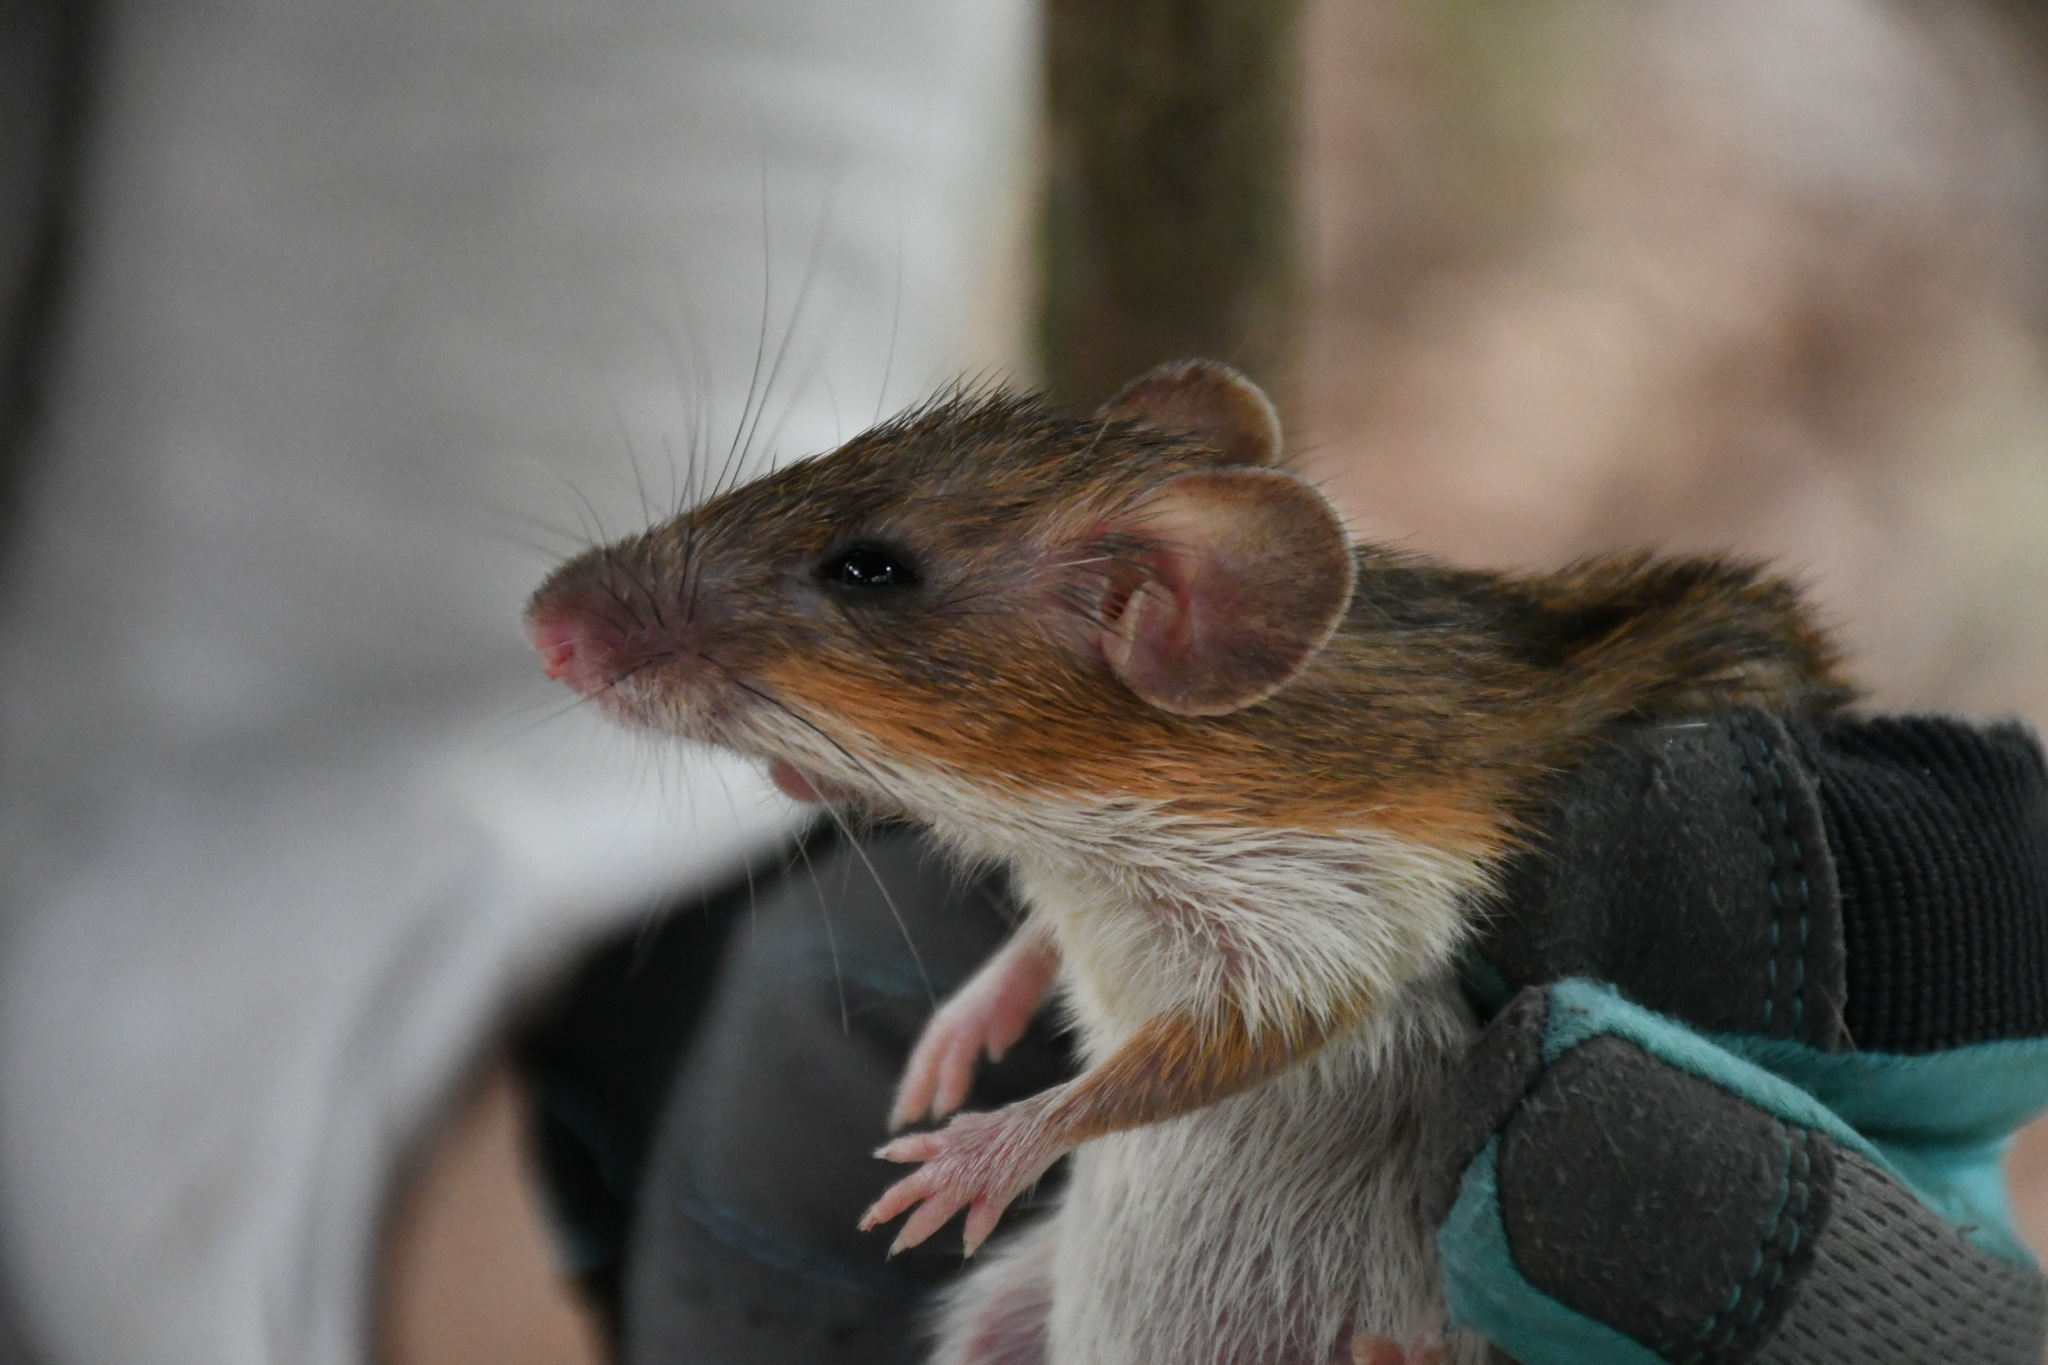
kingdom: Animalia
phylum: Chordata
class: Mammalia
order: Rodentia
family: Heteromyidae
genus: Heteromys
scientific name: Heteromys gaumeri
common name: Gaumer's spiny pocket mouse
